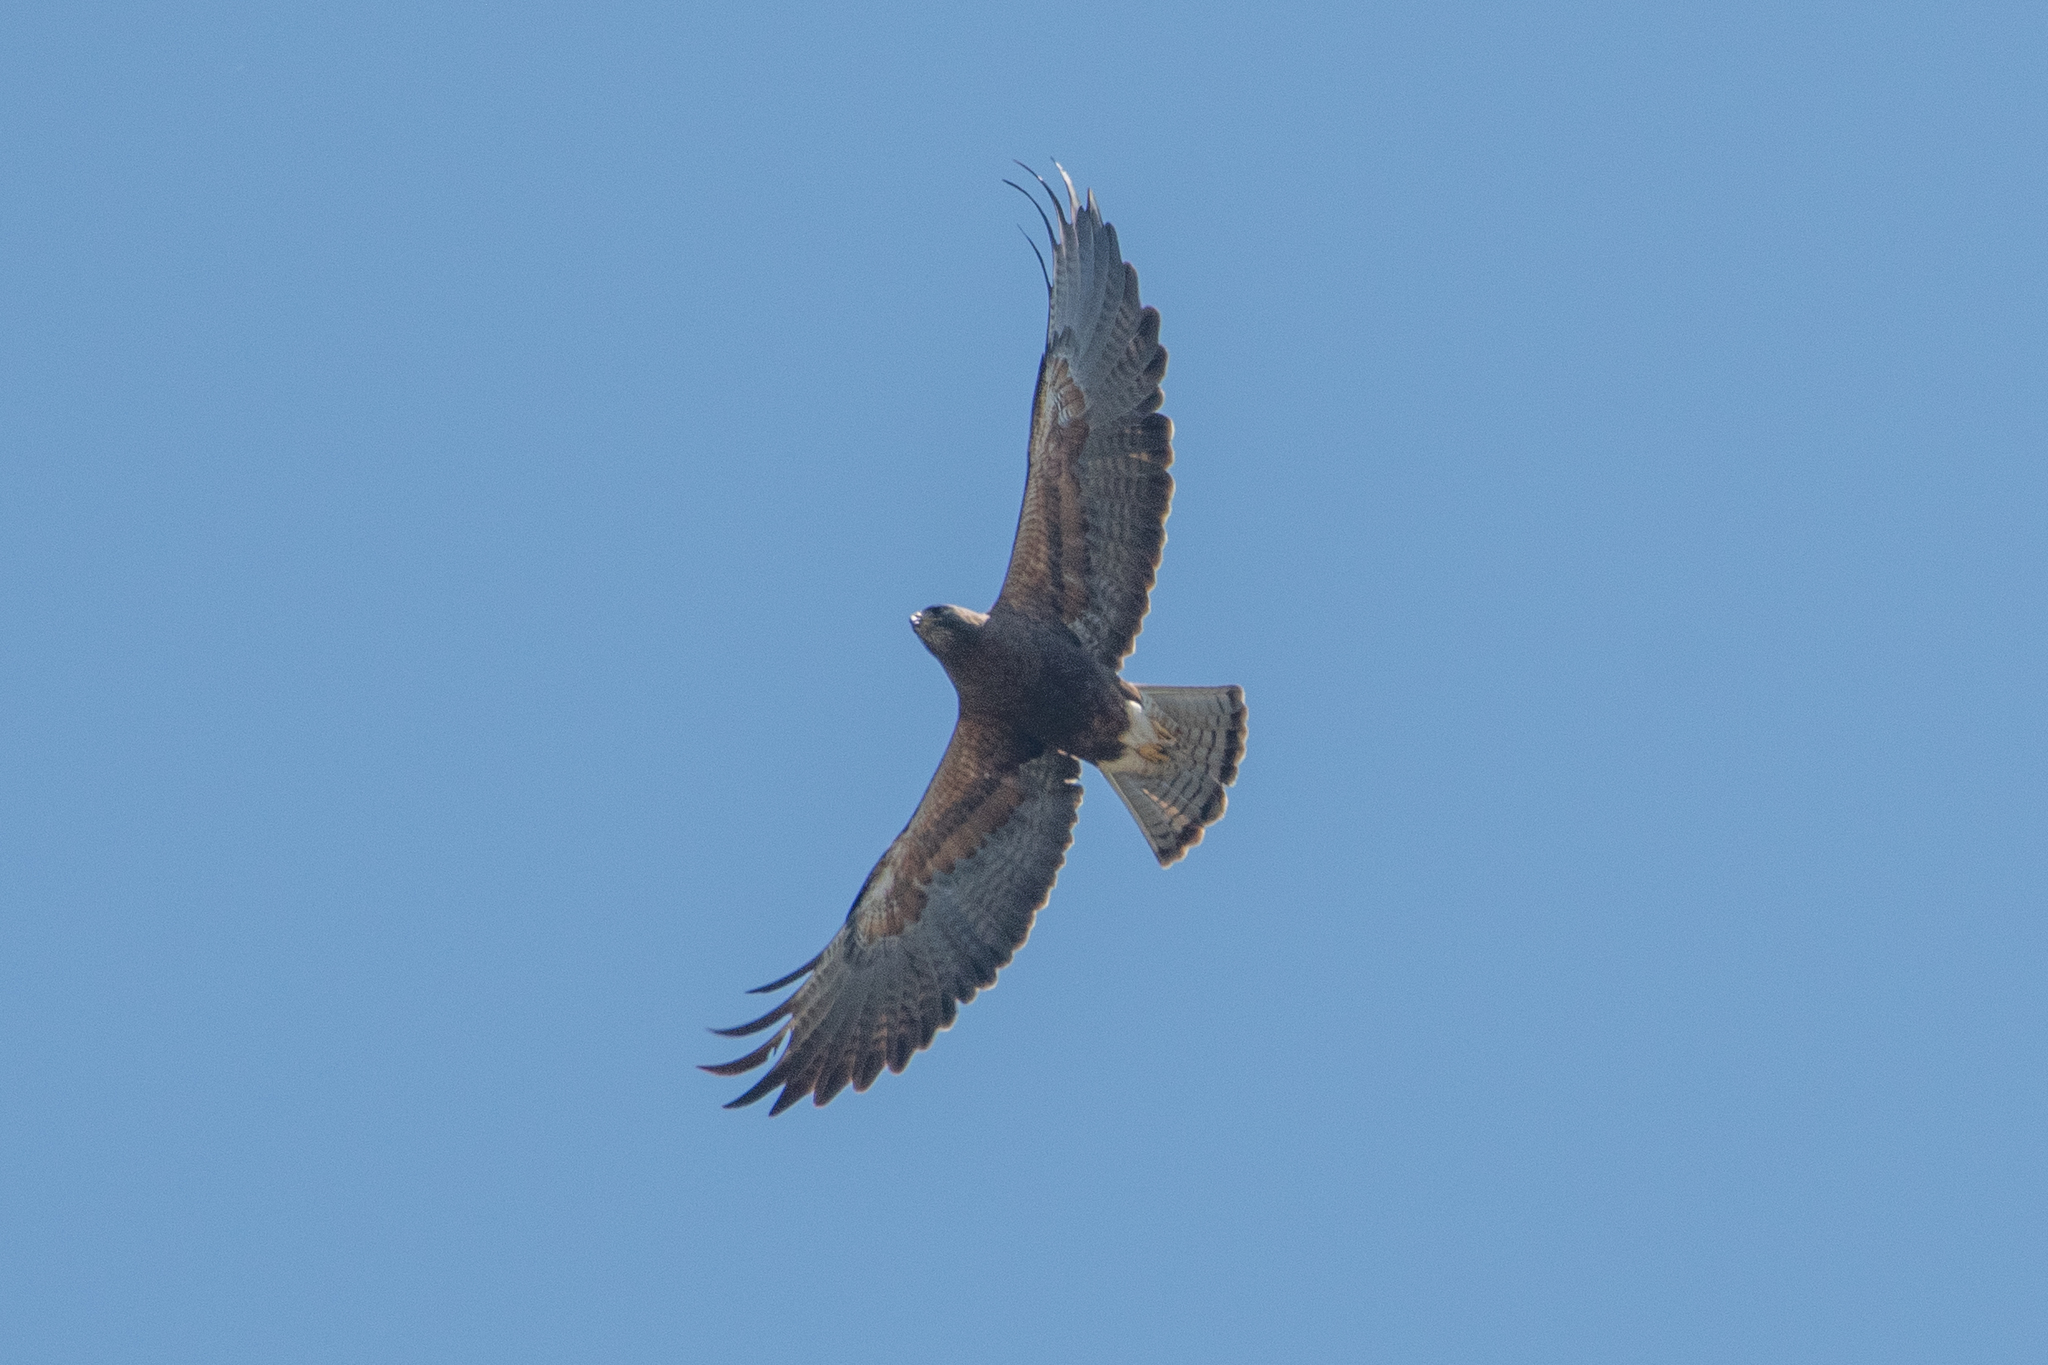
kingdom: Animalia
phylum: Chordata
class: Aves
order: Accipitriformes
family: Accipitridae
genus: Buteo
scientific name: Buteo swainsoni
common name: Swainson's hawk
